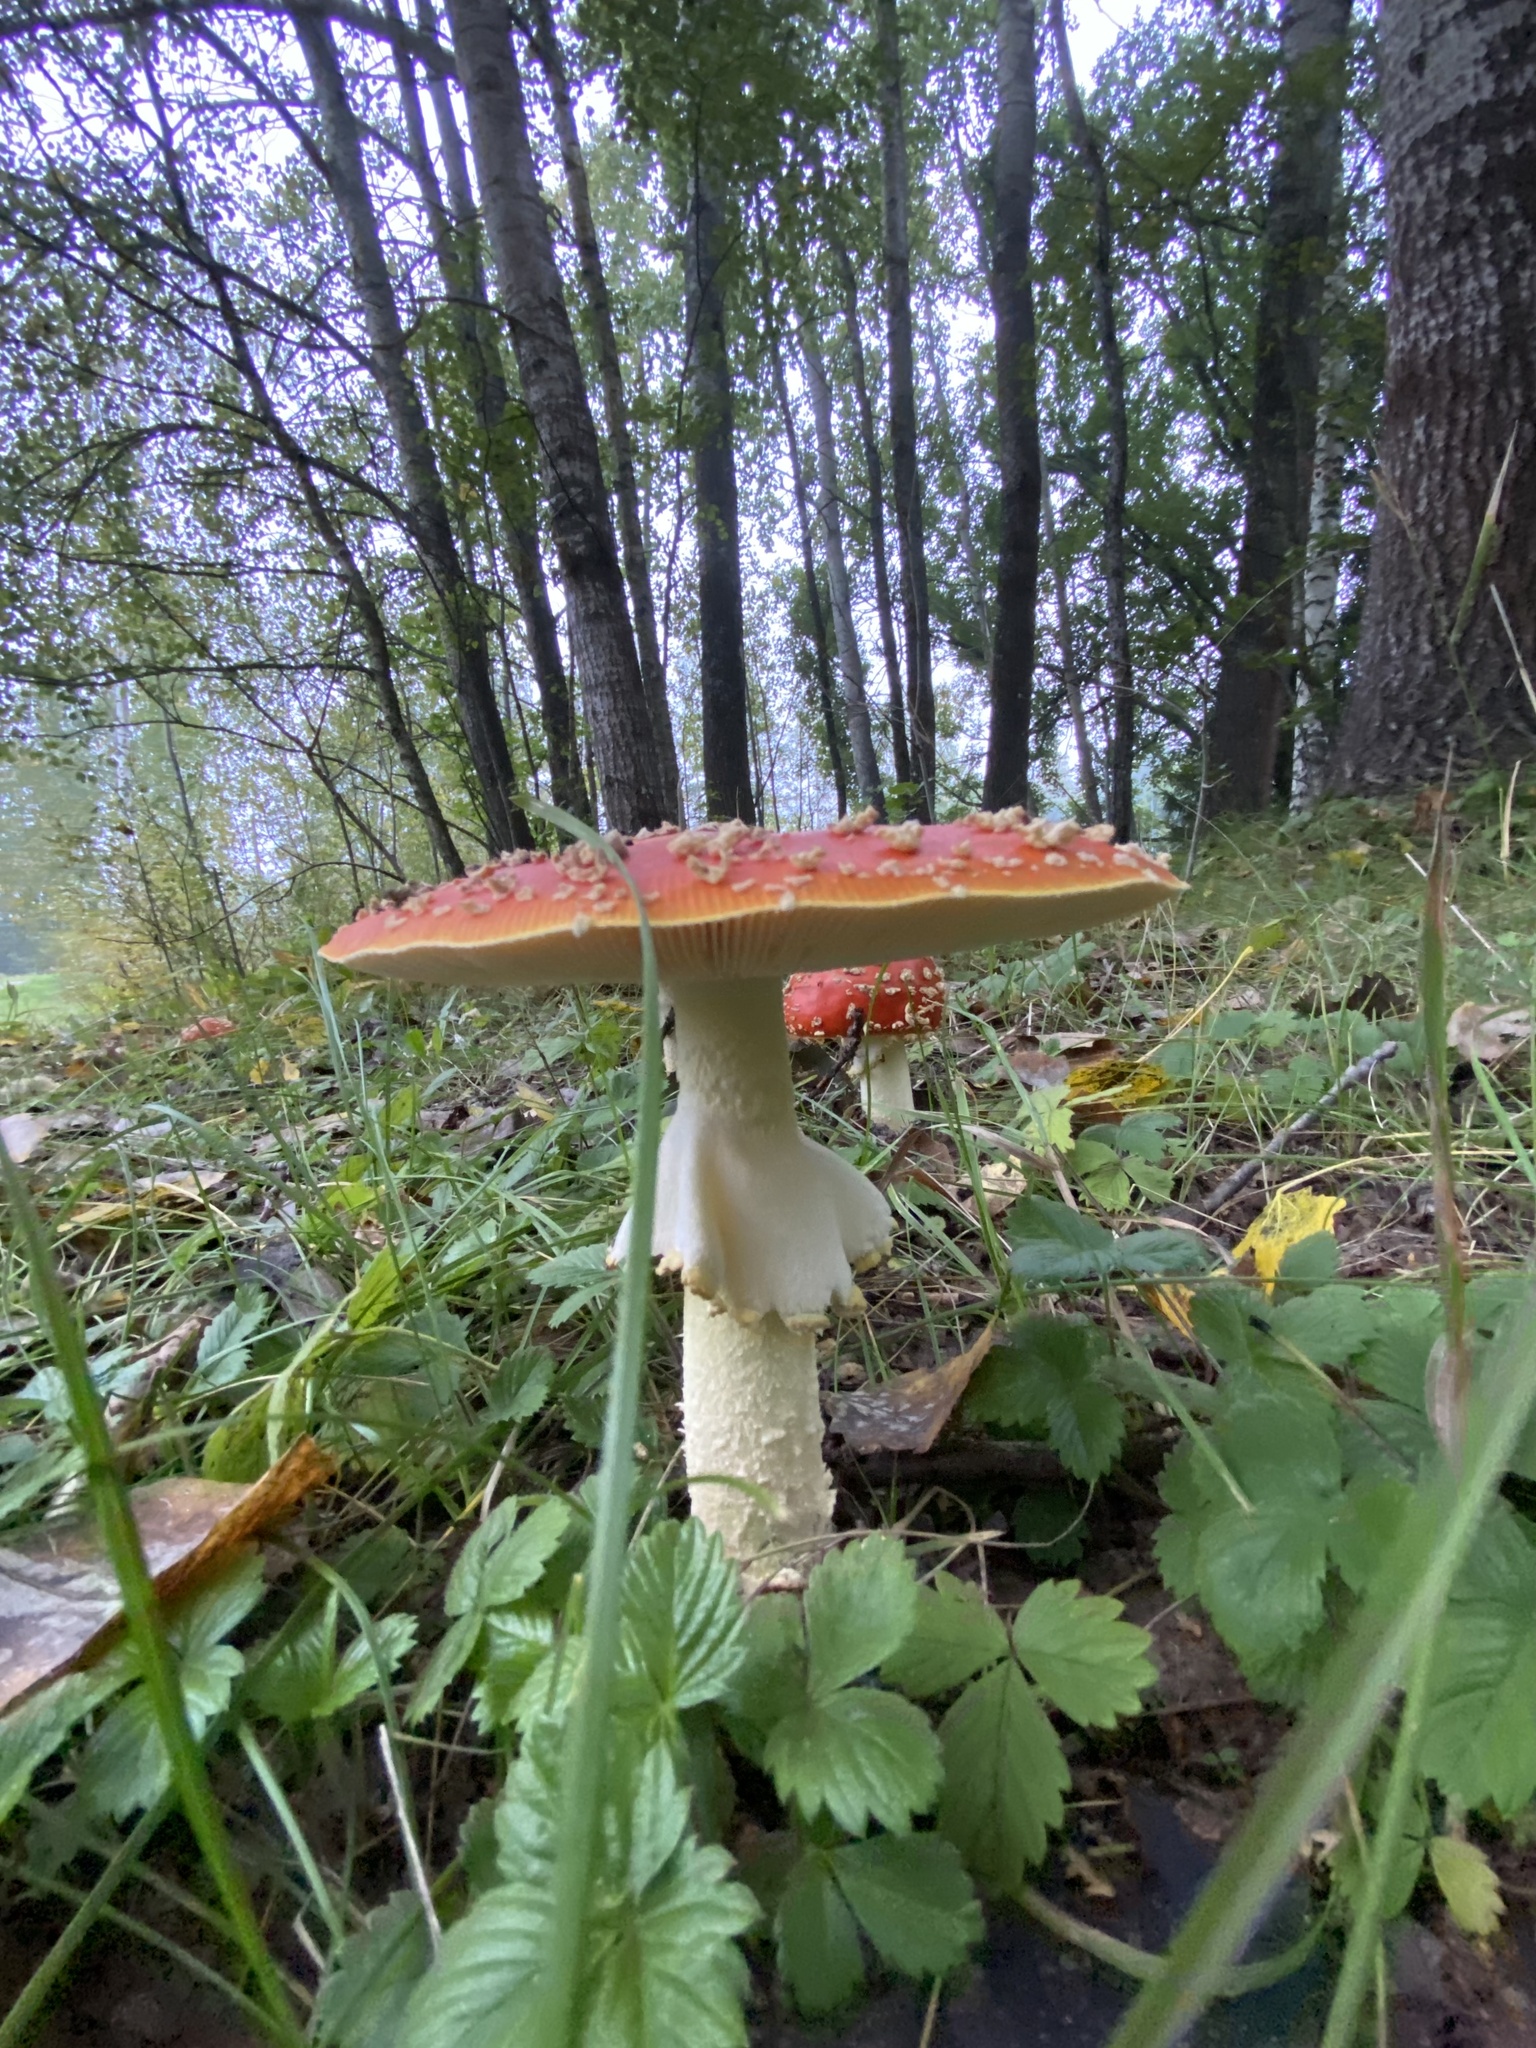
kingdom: Fungi
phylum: Basidiomycota
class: Agaricomycetes
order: Agaricales
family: Amanitaceae
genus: Amanita
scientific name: Amanita muscaria
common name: Fly agaric
